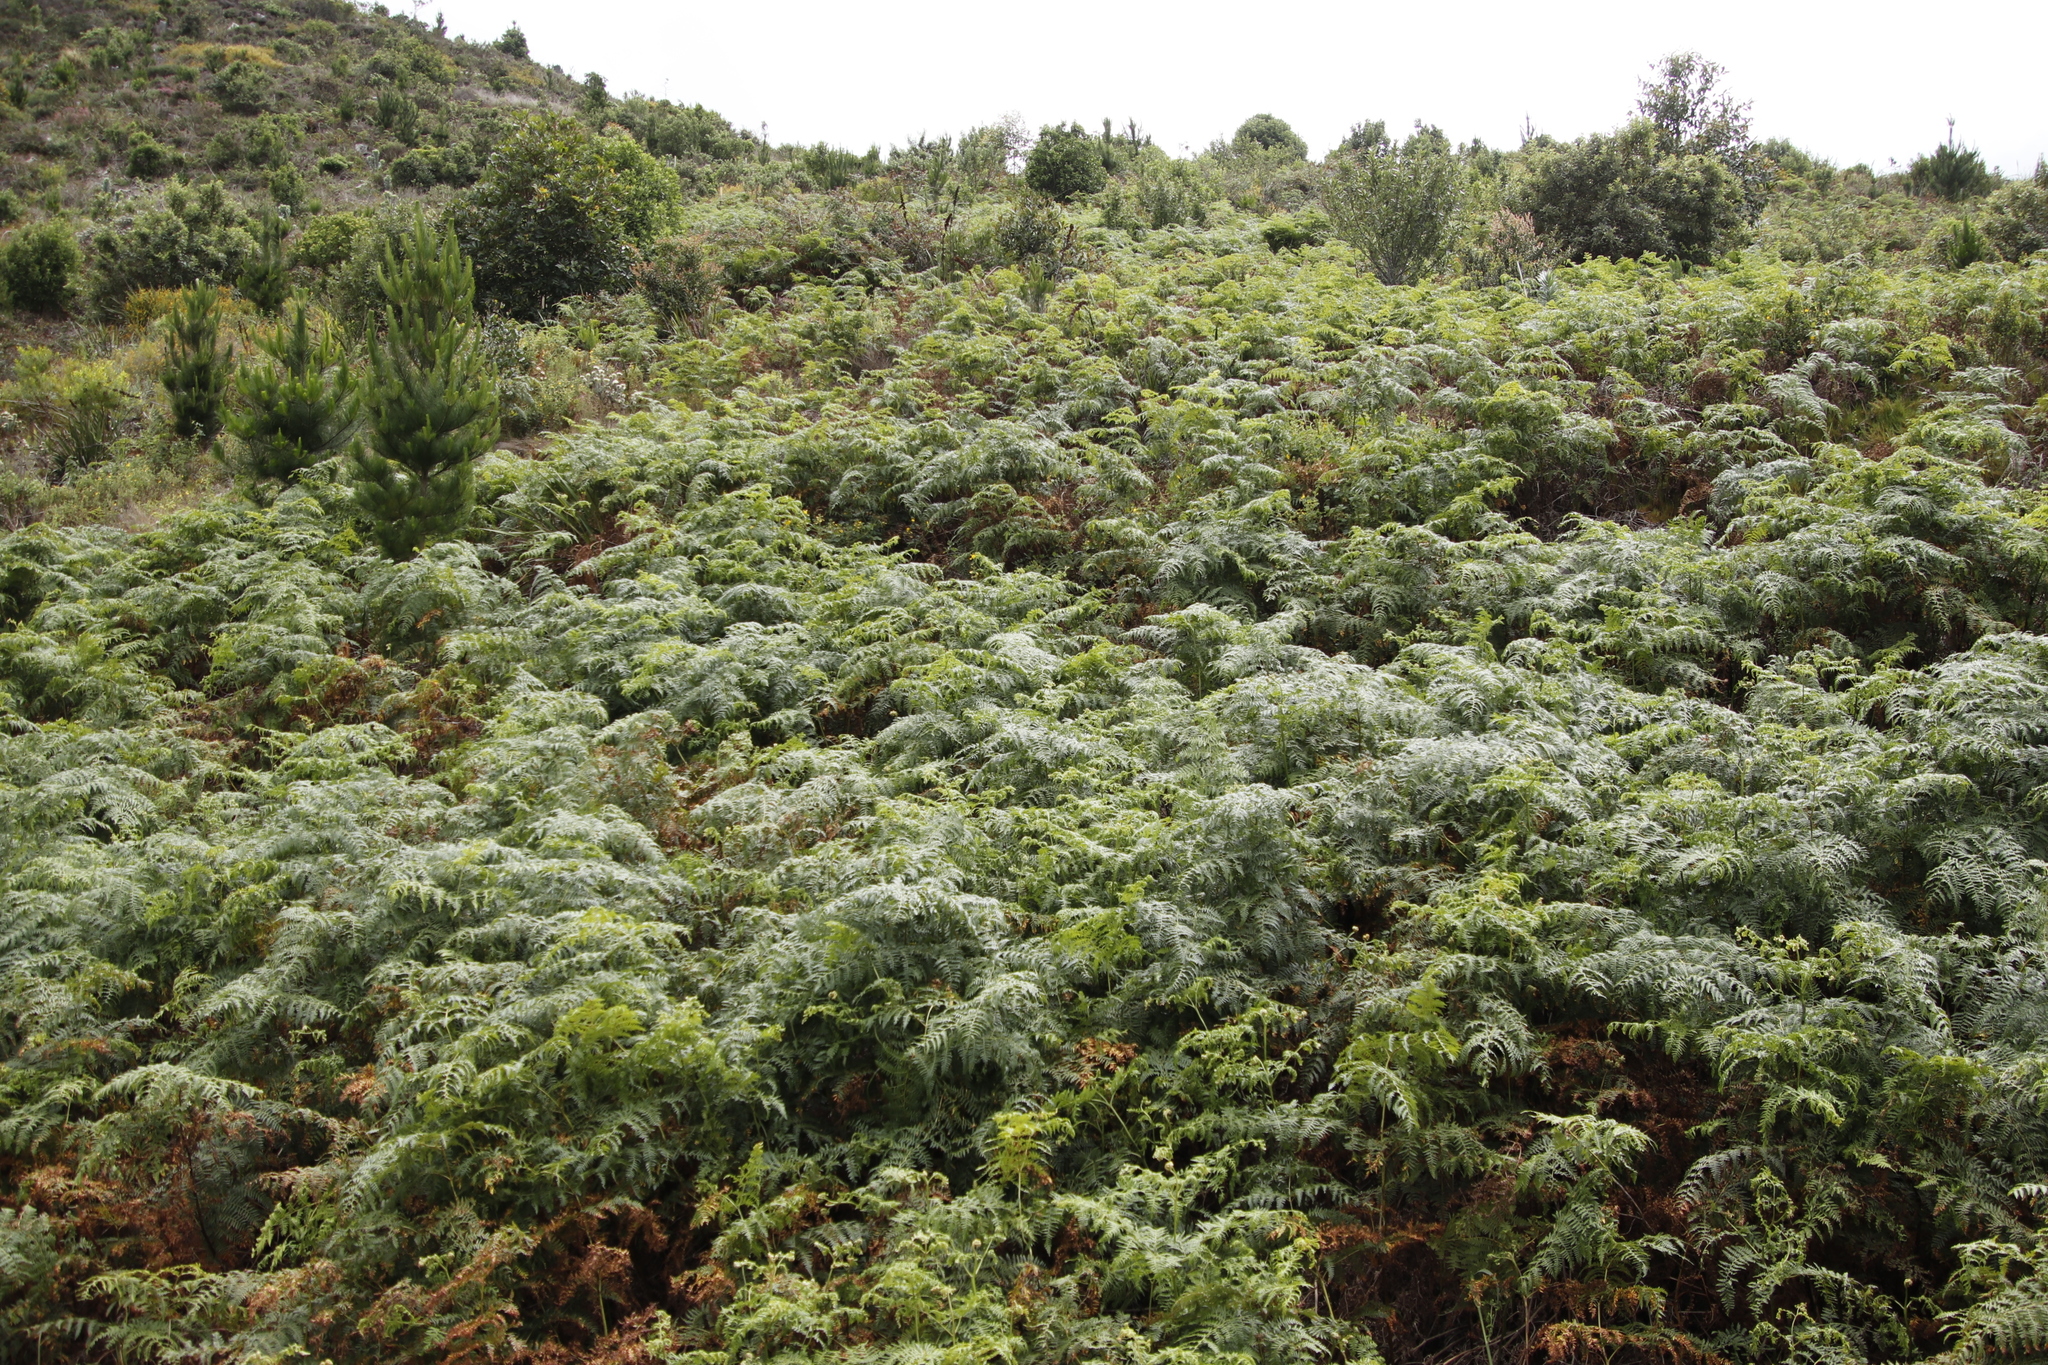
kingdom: Plantae
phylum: Tracheophyta
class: Polypodiopsida
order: Polypodiales
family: Dennstaedtiaceae
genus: Pteridium
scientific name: Pteridium aquilinum
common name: Bracken
